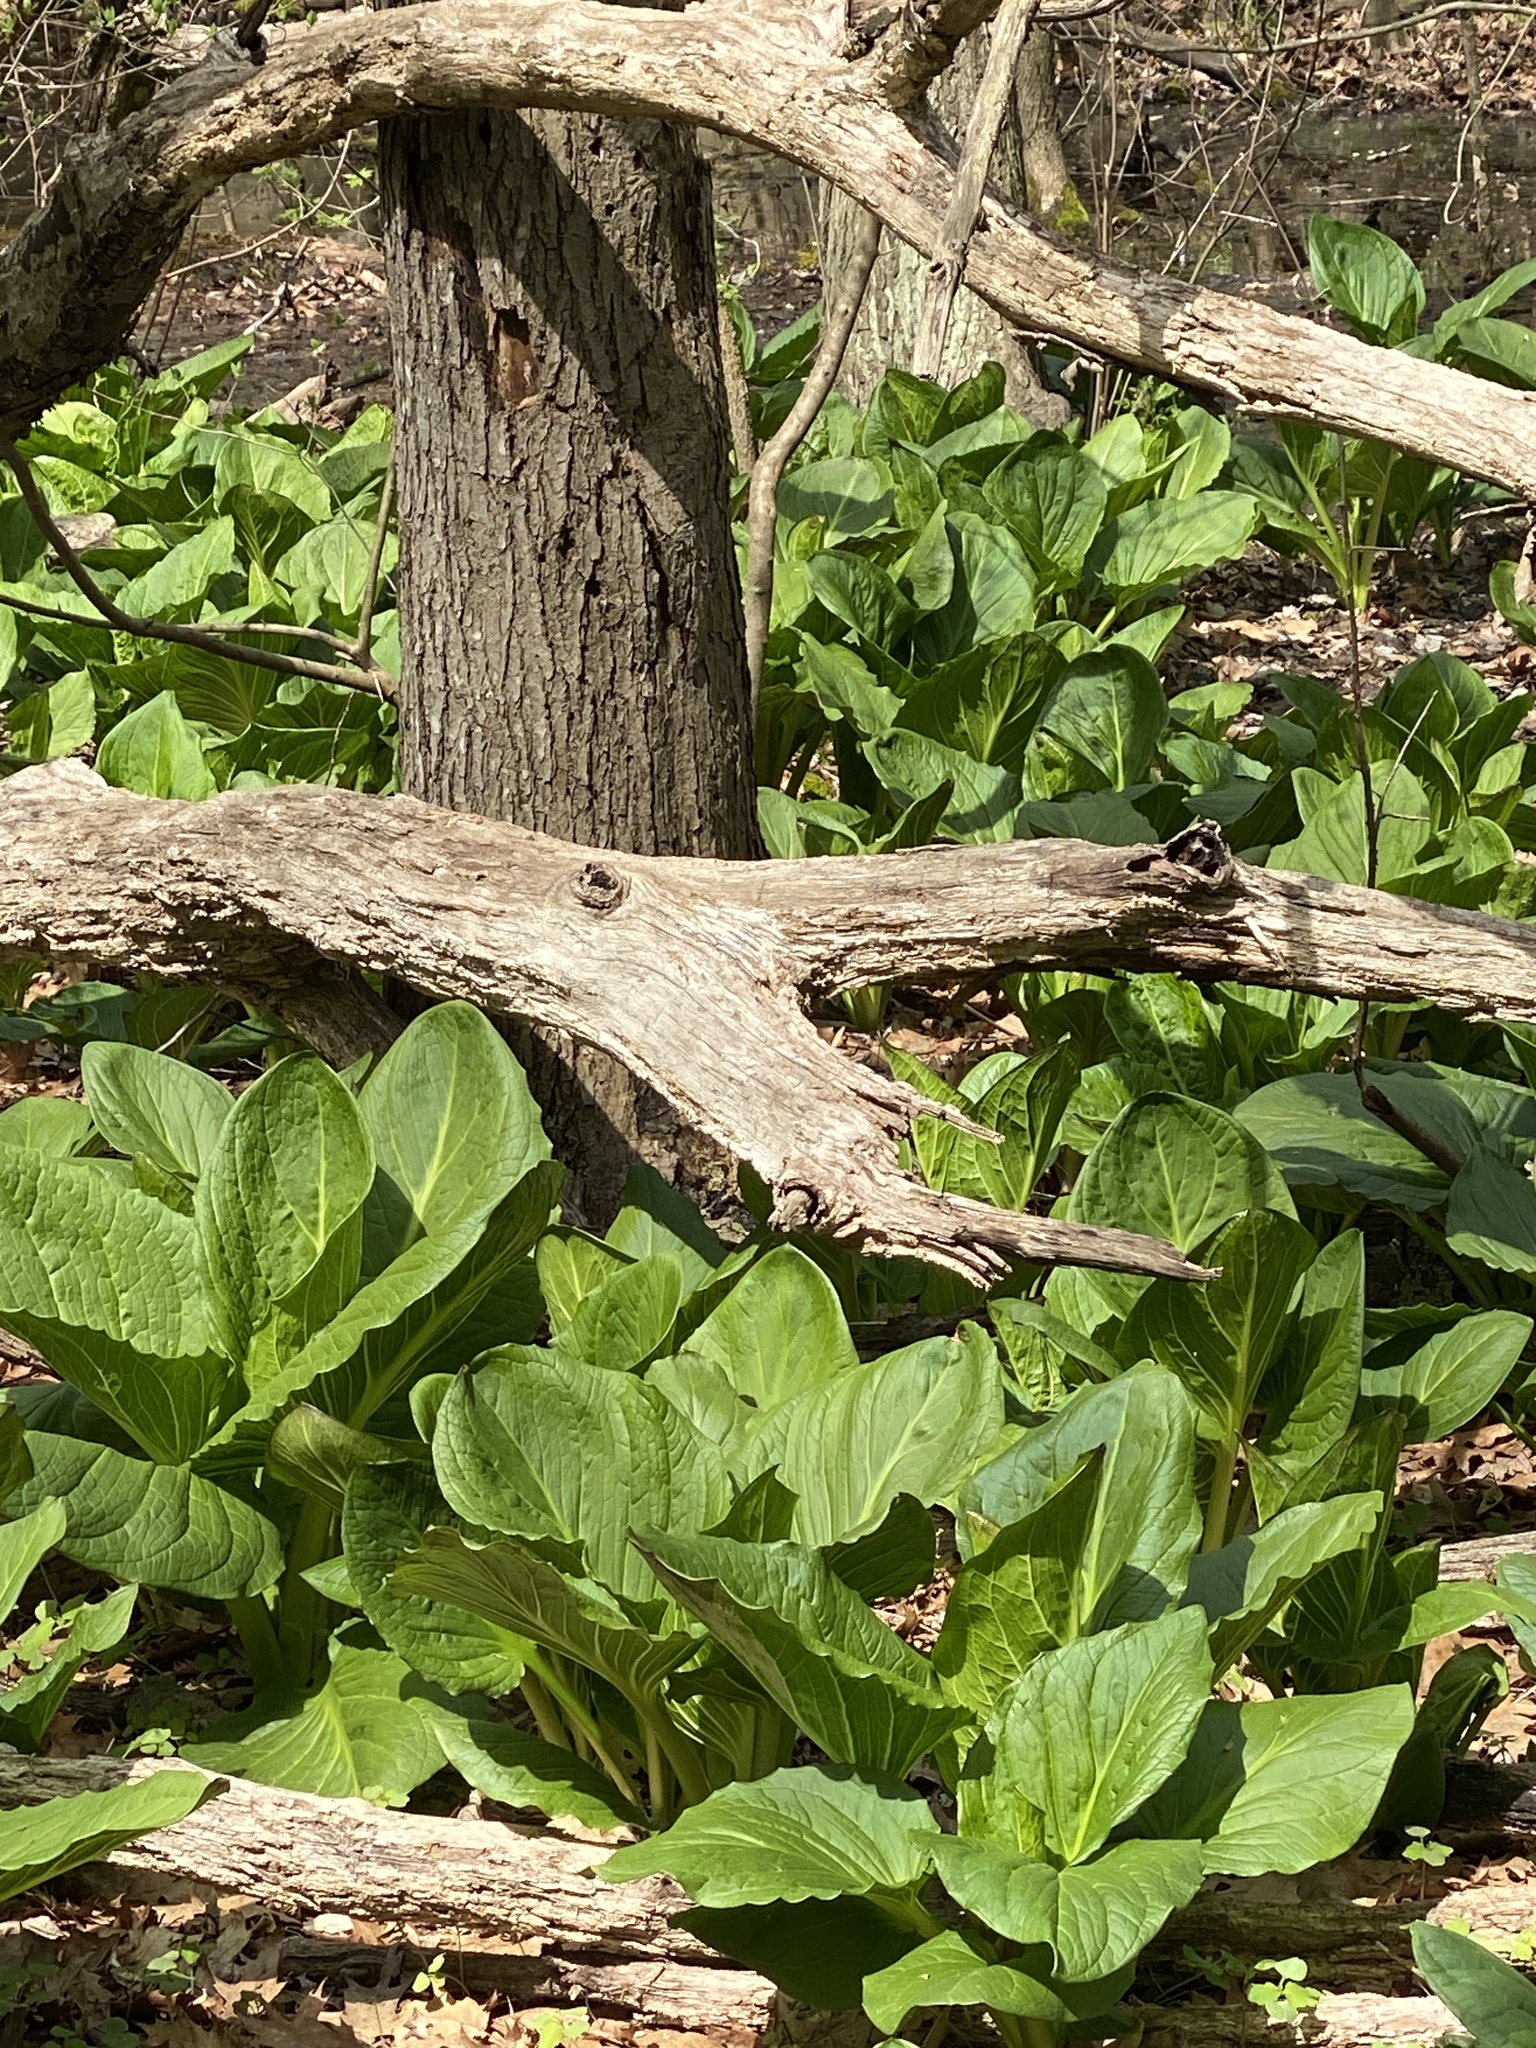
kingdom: Plantae
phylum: Tracheophyta
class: Liliopsida
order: Alismatales
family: Araceae
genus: Symplocarpus
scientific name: Symplocarpus foetidus
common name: Eastern skunk cabbage
